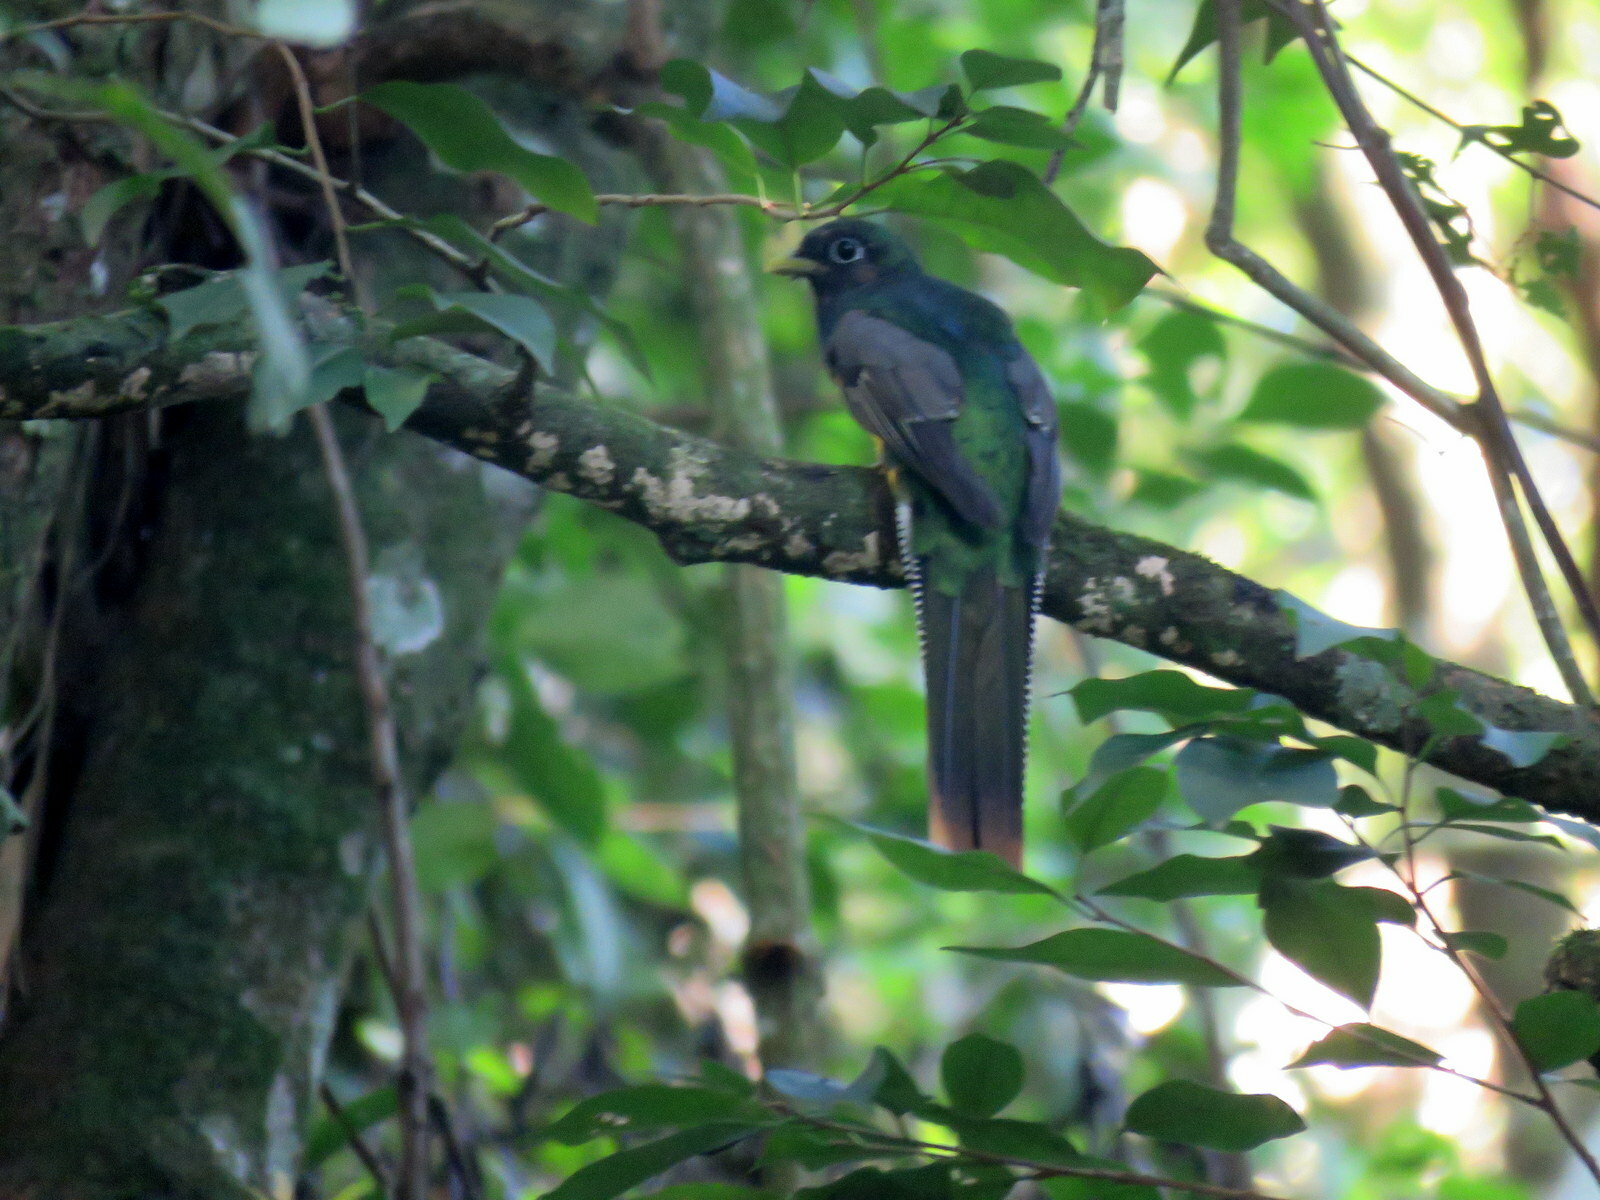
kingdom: Animalia
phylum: Chordata
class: Aves
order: Trogoniformes
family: Trogonidae
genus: Trogon
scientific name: Trogon rufus
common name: Black-throated trogon
